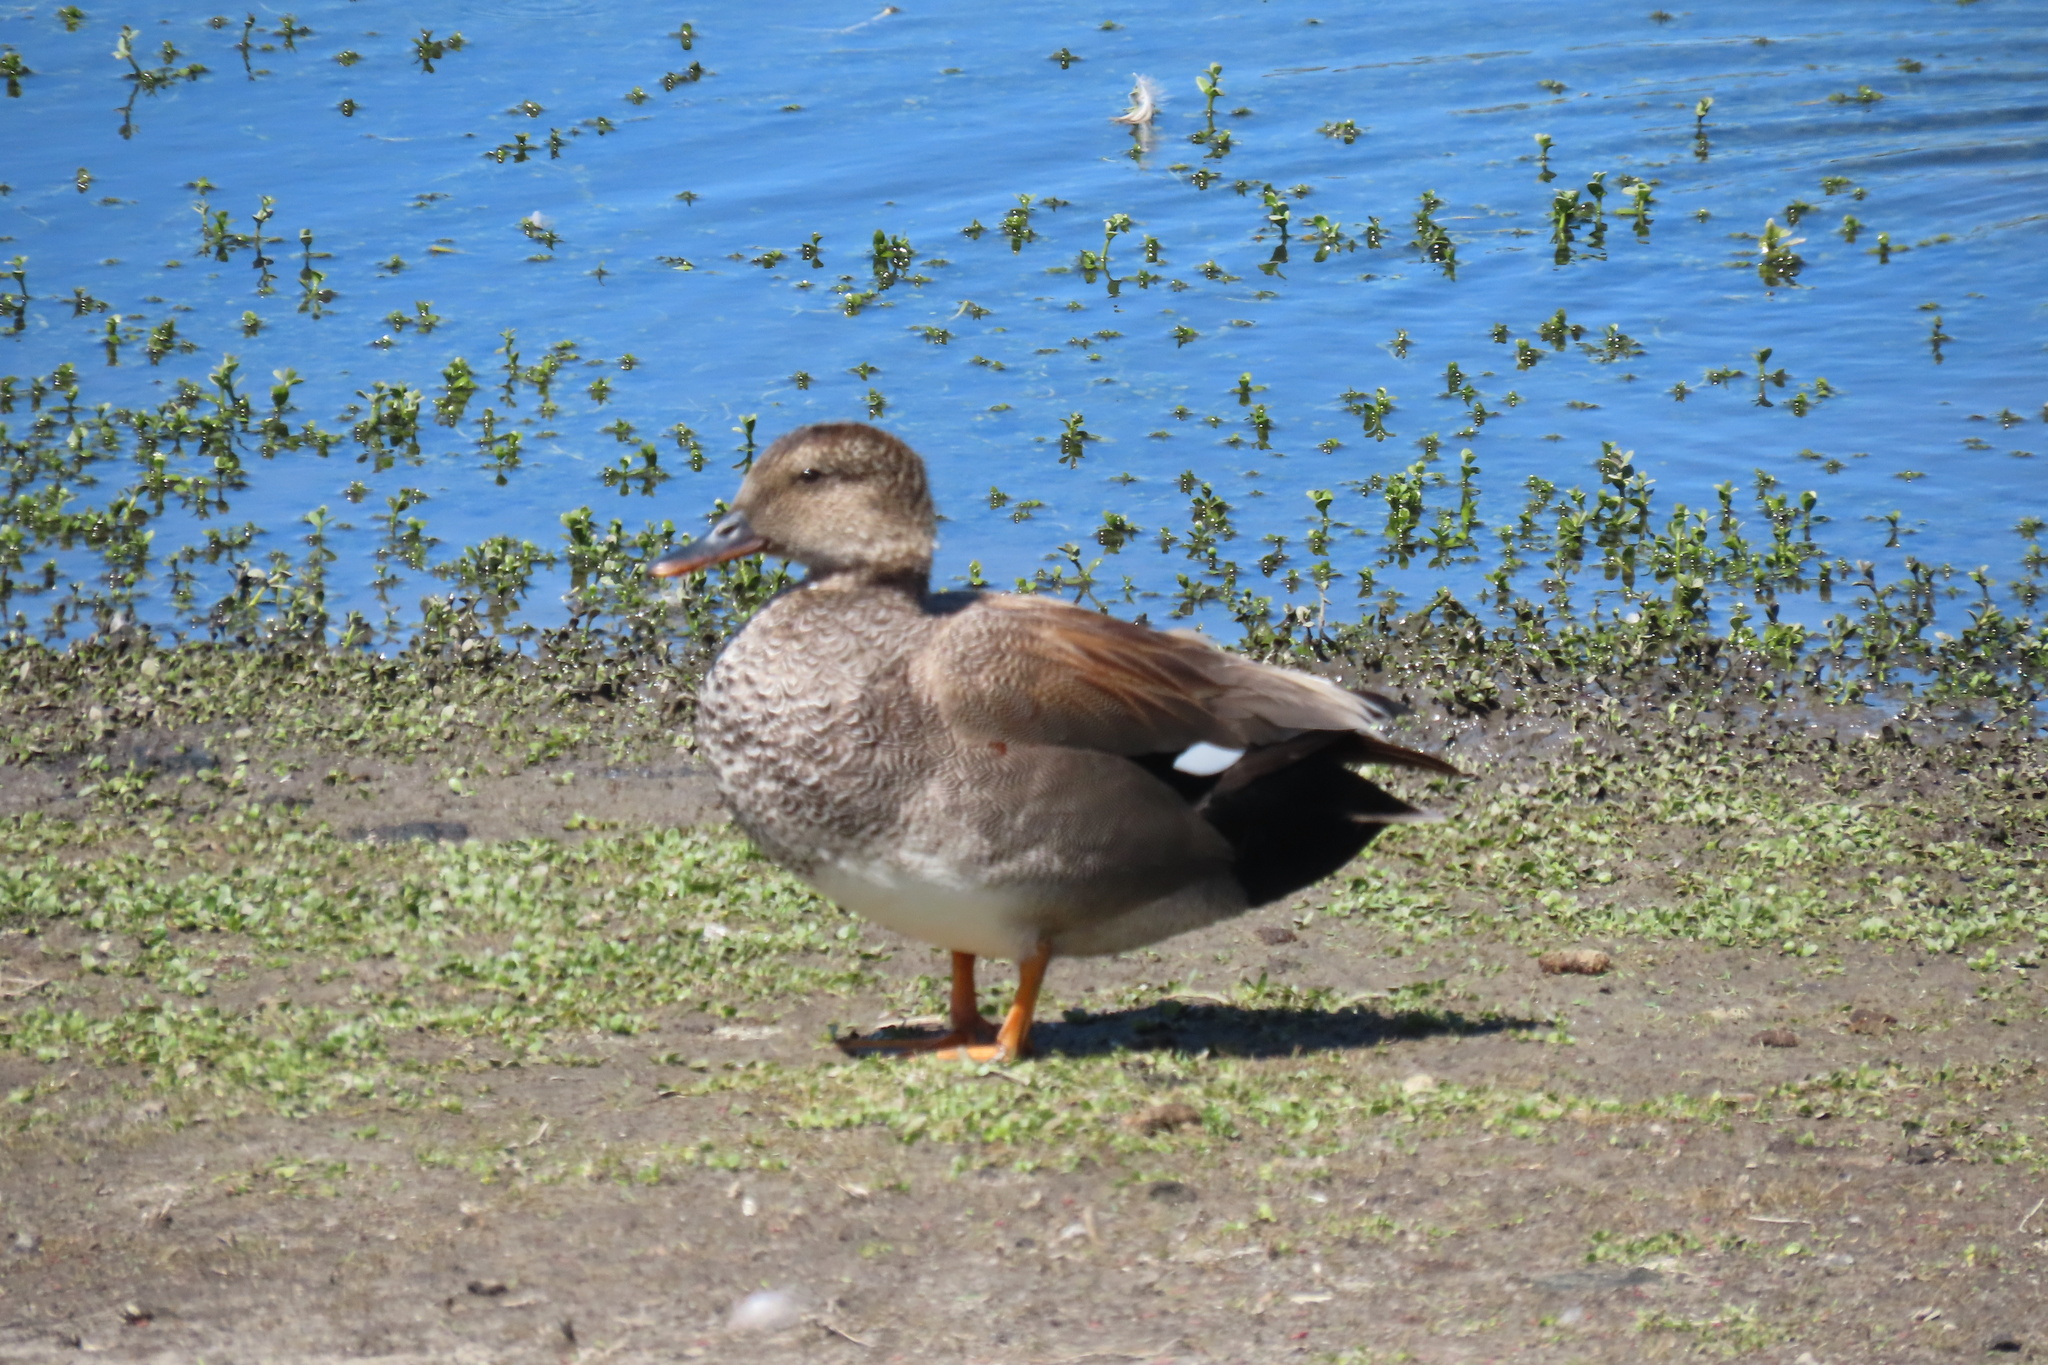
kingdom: Animalia
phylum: Chordata
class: Aves
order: Anseriformes
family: Anatidae
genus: Mareca
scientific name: Mareca strepera
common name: Gadwall
